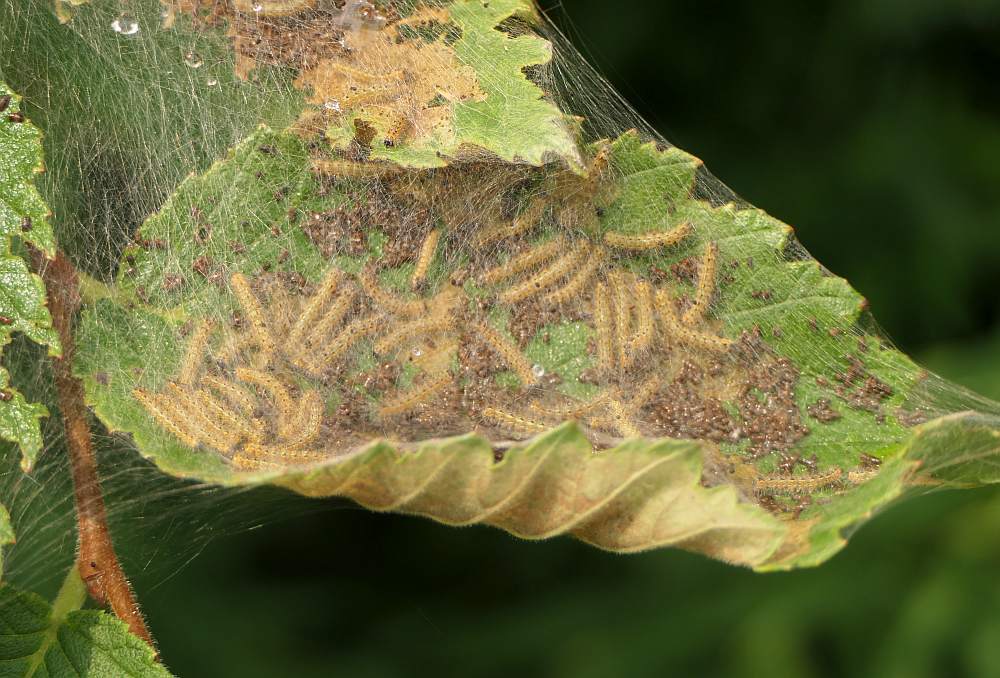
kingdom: Animalia
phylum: Arthropoda
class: Insecta
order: Lepidoptera
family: Erebidae
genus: Hyphantria
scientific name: Hyphantria cunea
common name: American white moth
